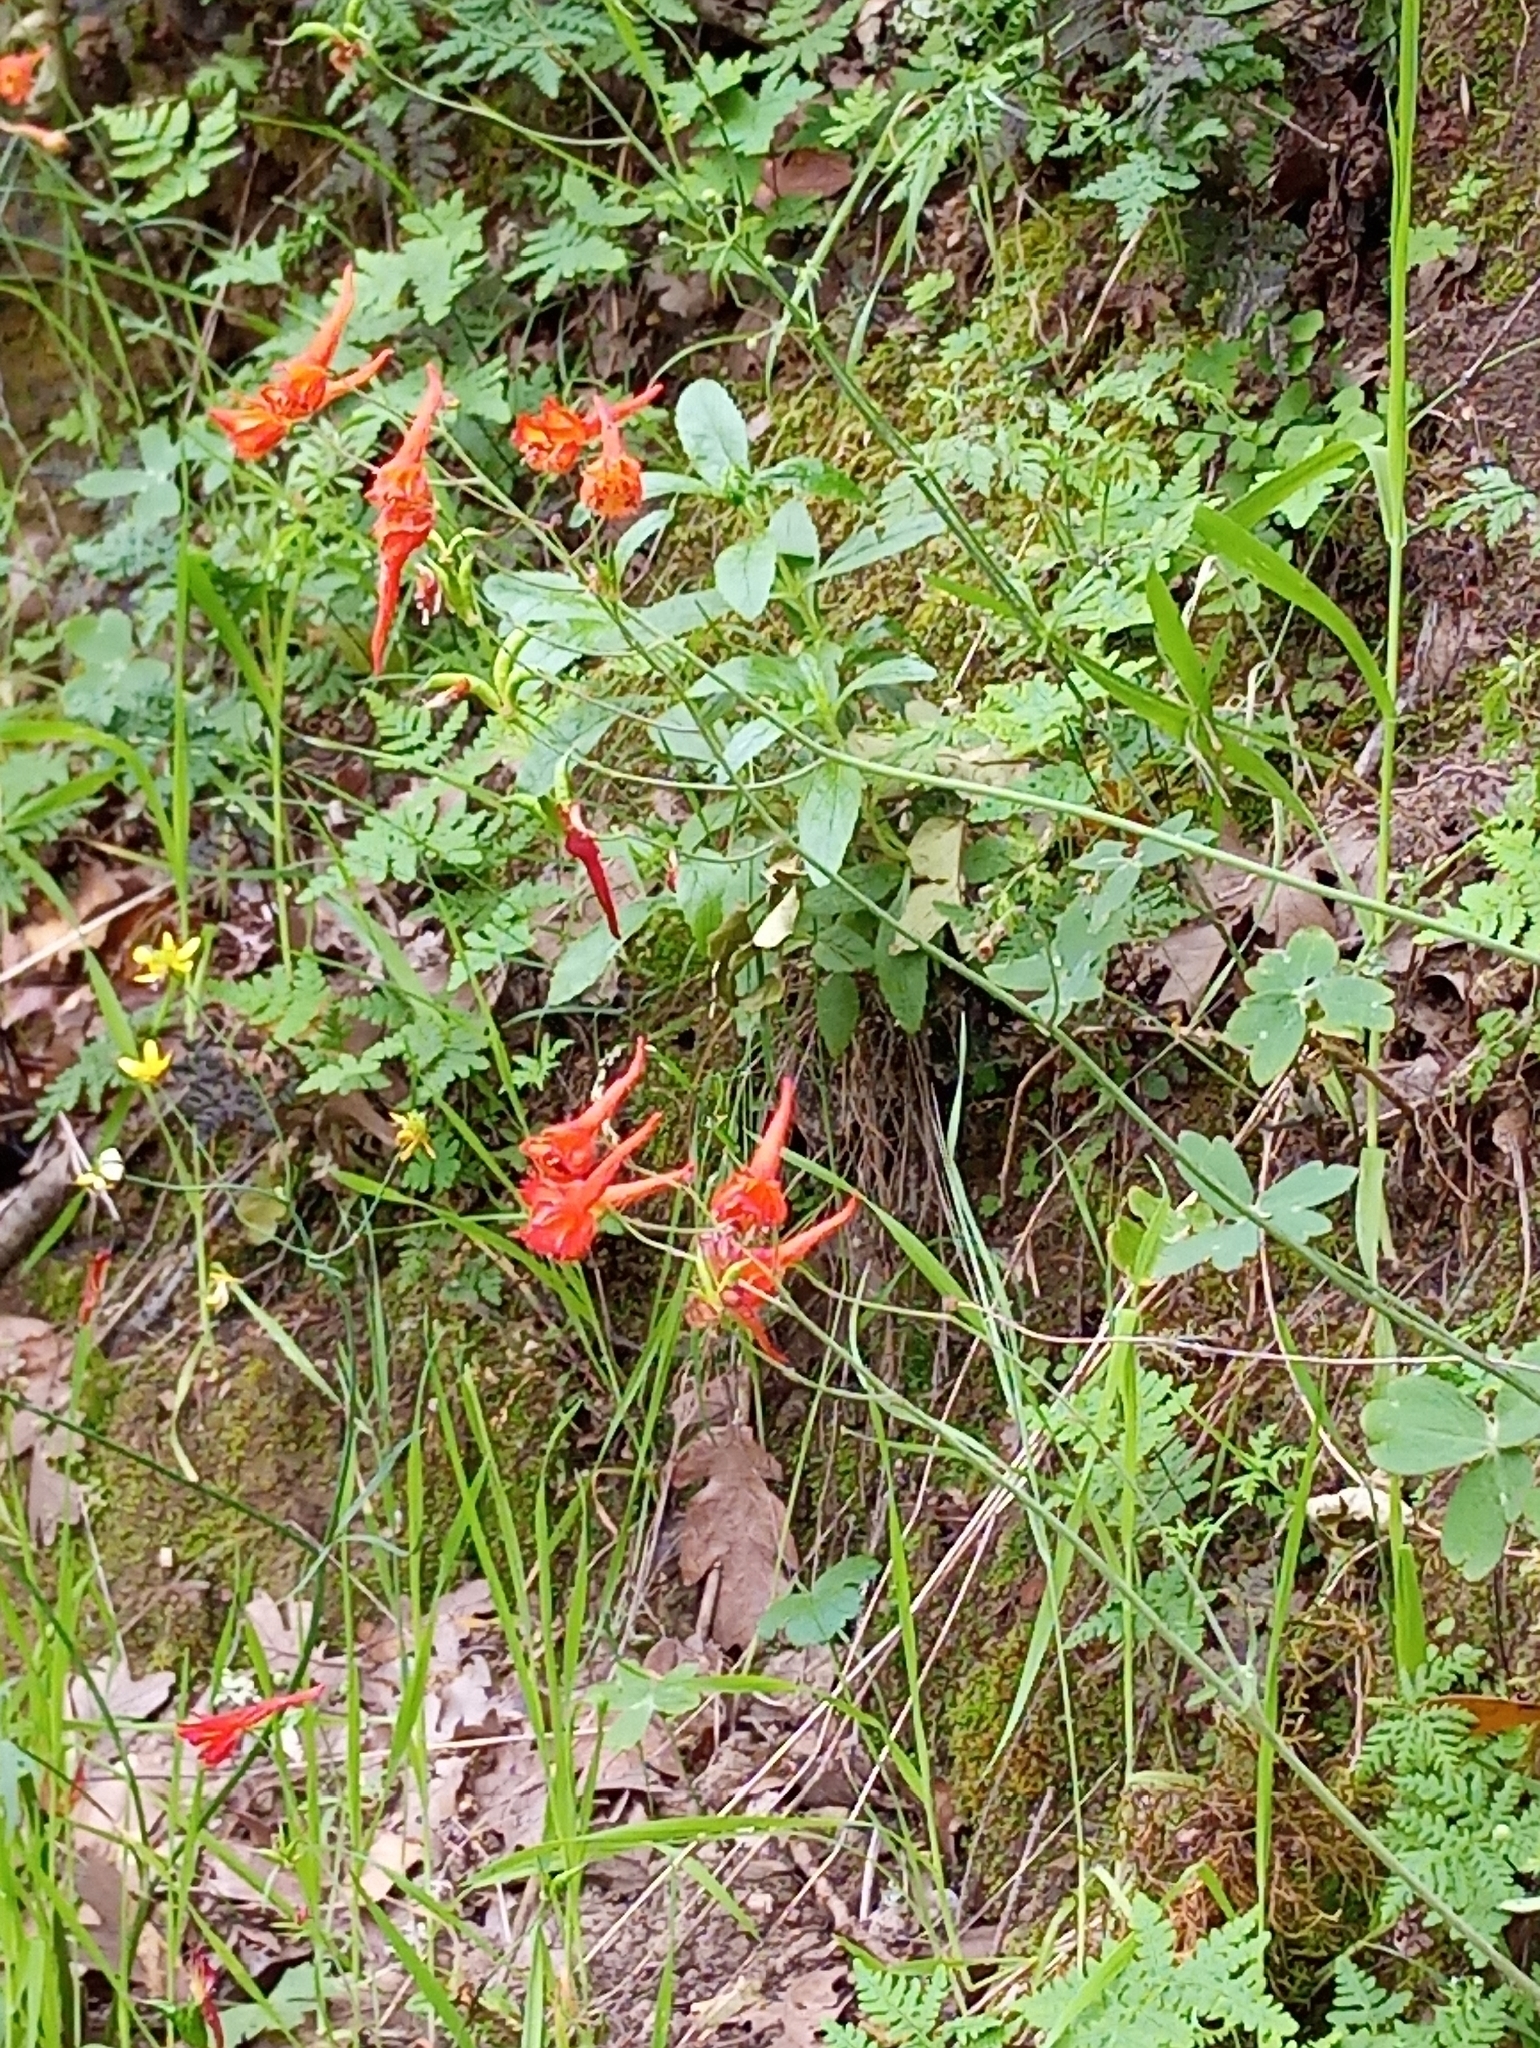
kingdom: Plantae
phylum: Tracheophyta
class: Magnoliopsida
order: Ranunculales
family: Ranunculaceae
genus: Delphinium
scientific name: Delphinium nudicaule
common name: Red larkspur
